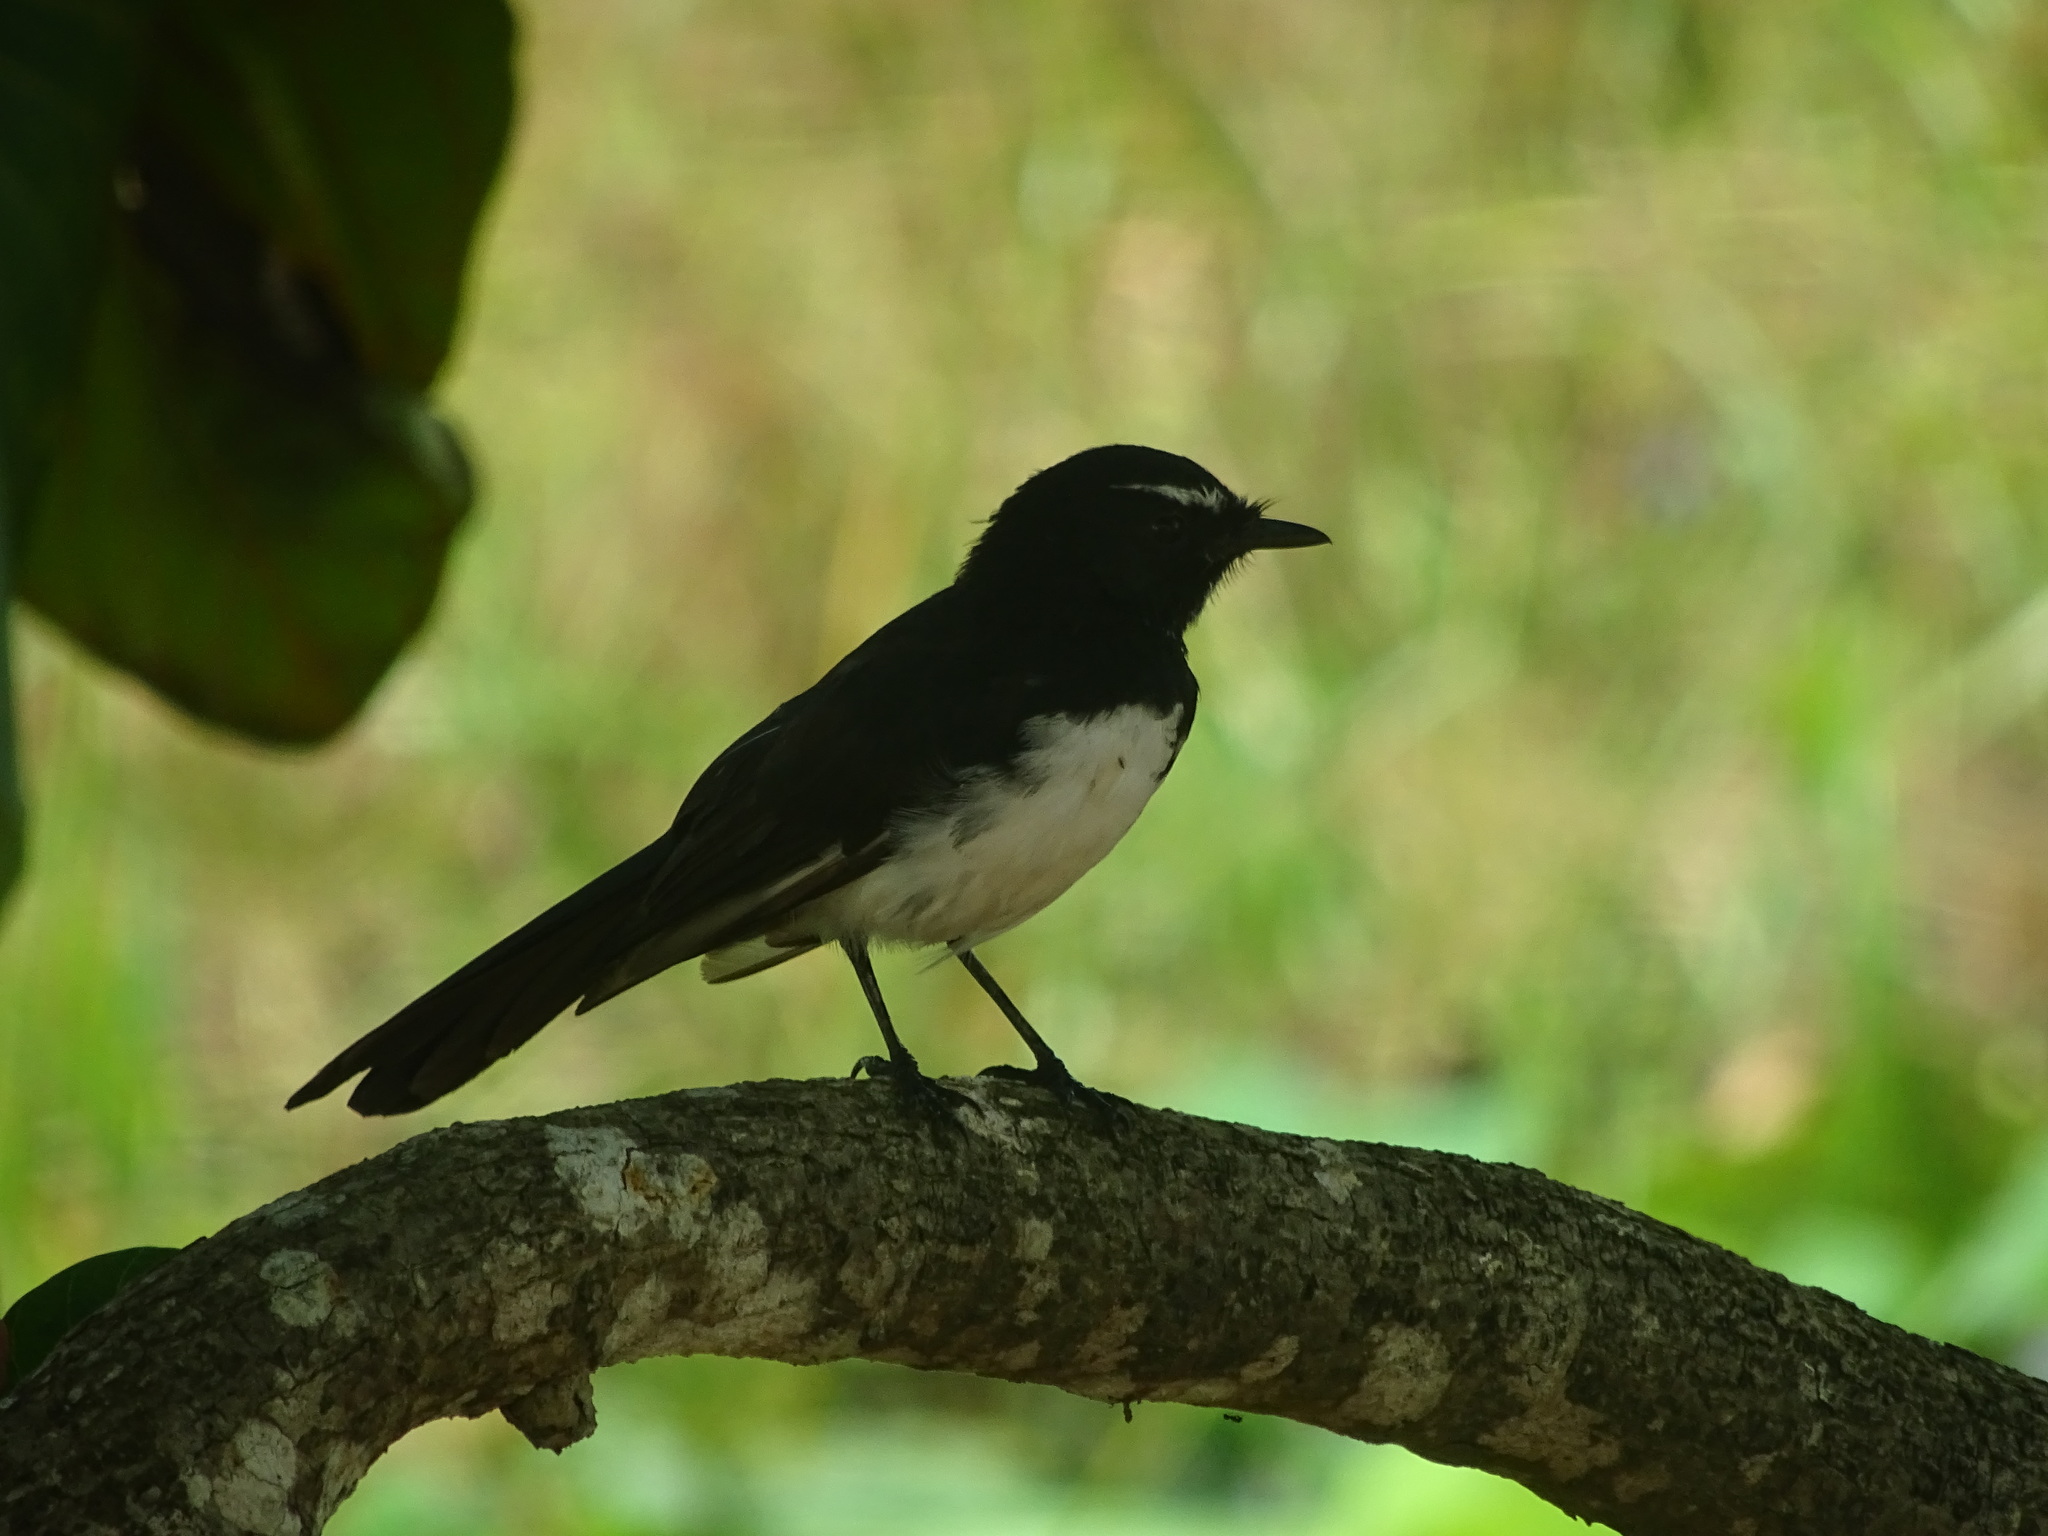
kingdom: Animalia
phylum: Chordata
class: Aves
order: Passeriformes
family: Rhipiduridae
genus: Rhipidura
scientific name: Rhipidura leucophrys
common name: Willie wagtail
